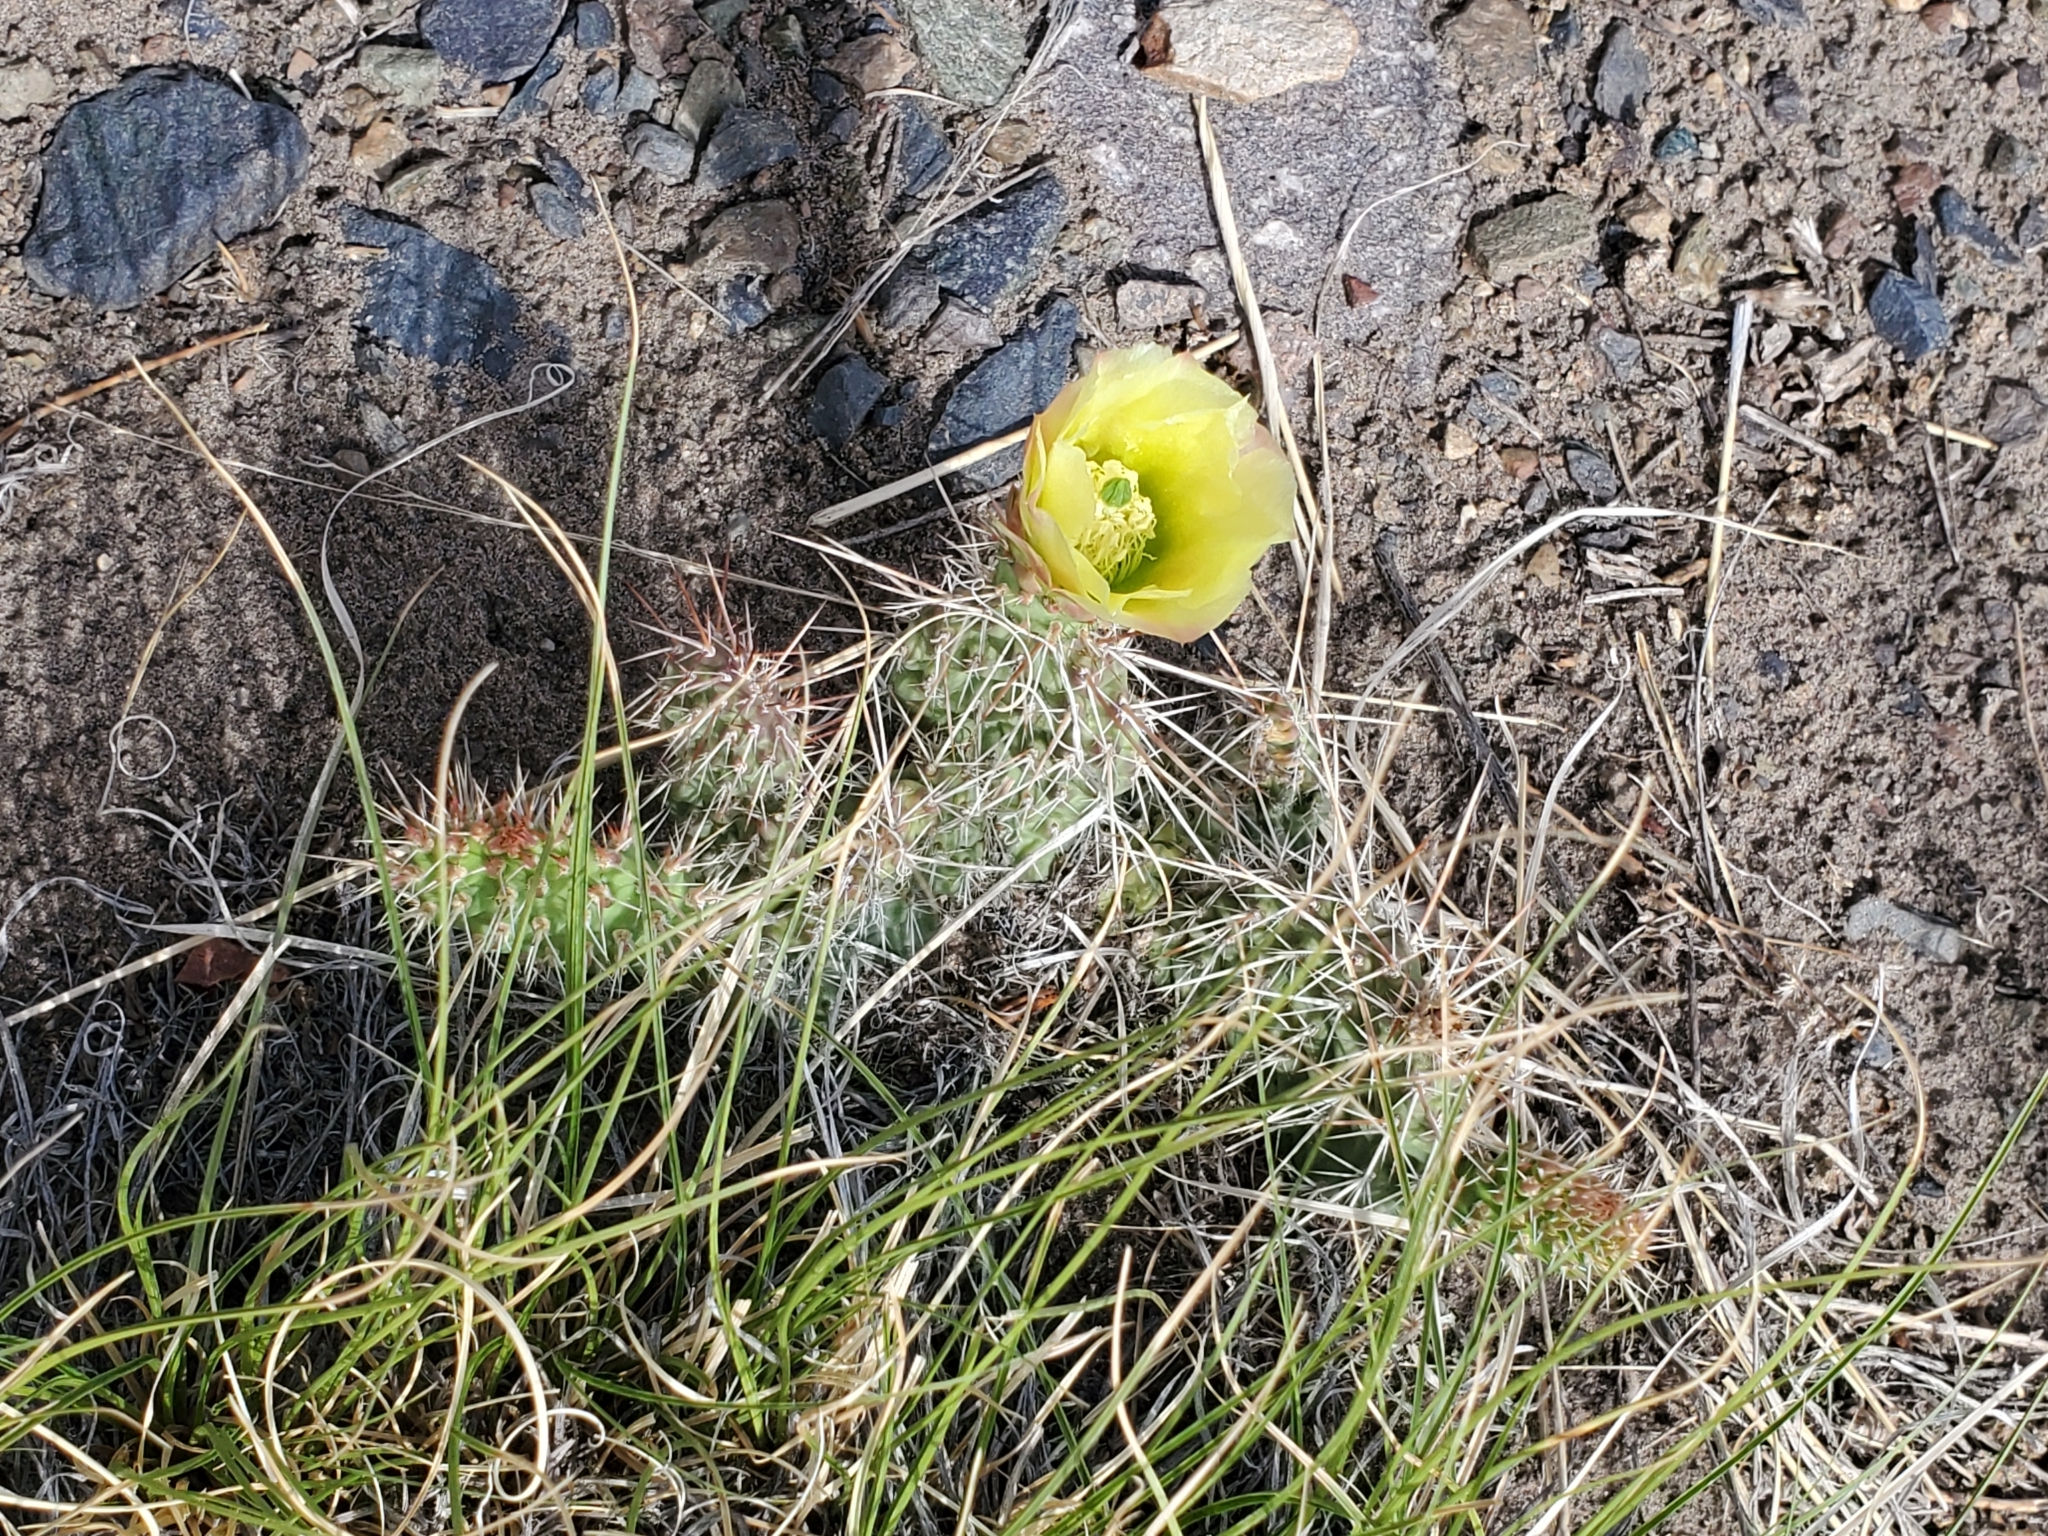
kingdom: Plantae
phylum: Tracheophyta
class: Magnoliopsida
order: Caryophyllales
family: Cactaceae
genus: Opuntia
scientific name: Opuntia polyacantha
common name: Plains prickly-pear
